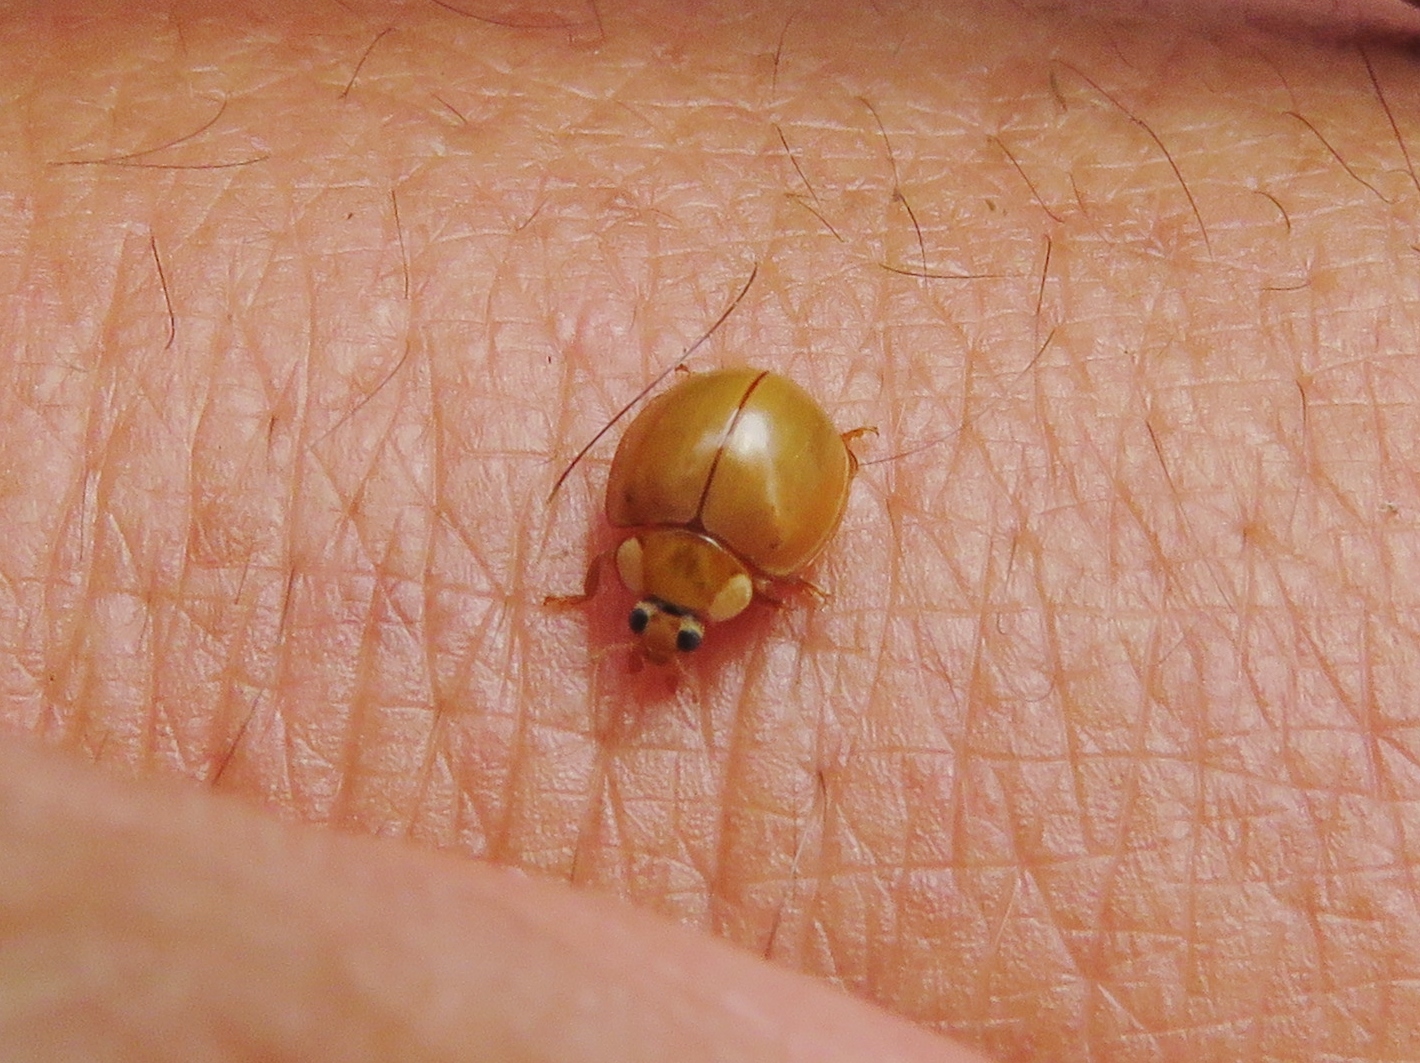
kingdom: Animalia
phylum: Arthropoda
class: Insecta
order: Coleoptera
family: Coccinellidae
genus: Paraneda
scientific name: Paraneda pallidula
